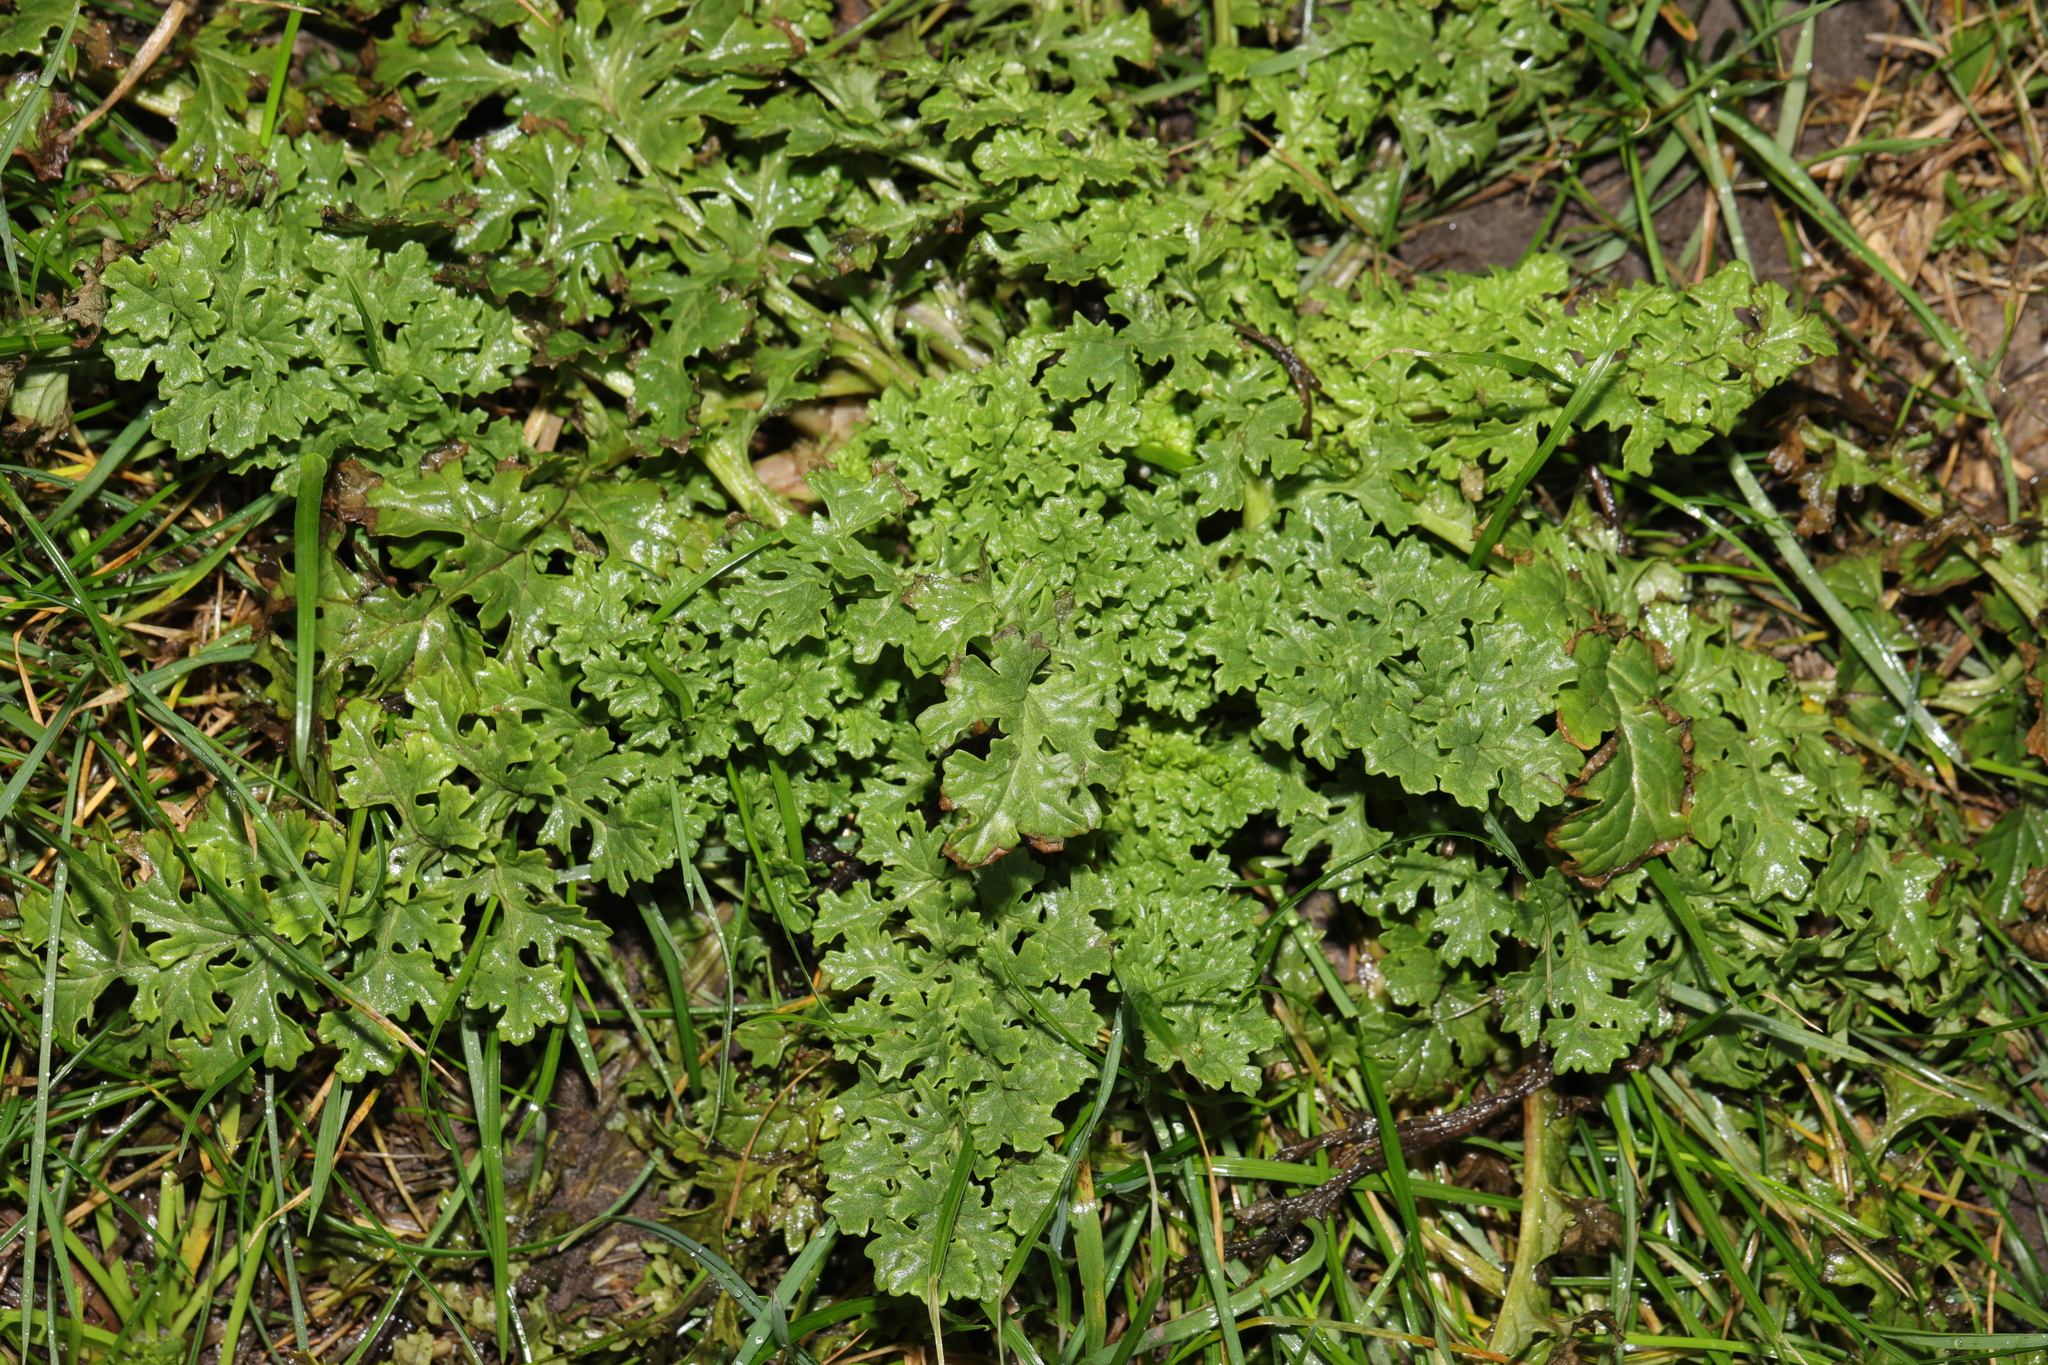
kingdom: Plantae
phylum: Tracheophyta
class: Magnoliopsida
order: Asterales
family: Asteraceae
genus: Jacobaea
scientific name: Jacobaea vulgaris
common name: Stinking willie
